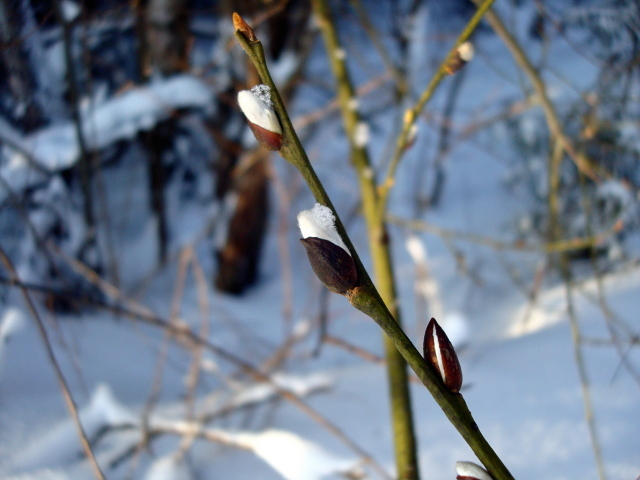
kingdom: Plantae
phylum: Tracheophyta
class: Magnoliopsida
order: Malpighiales
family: Salicaceae
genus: Salix
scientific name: Salix caprea
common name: Goat willow
